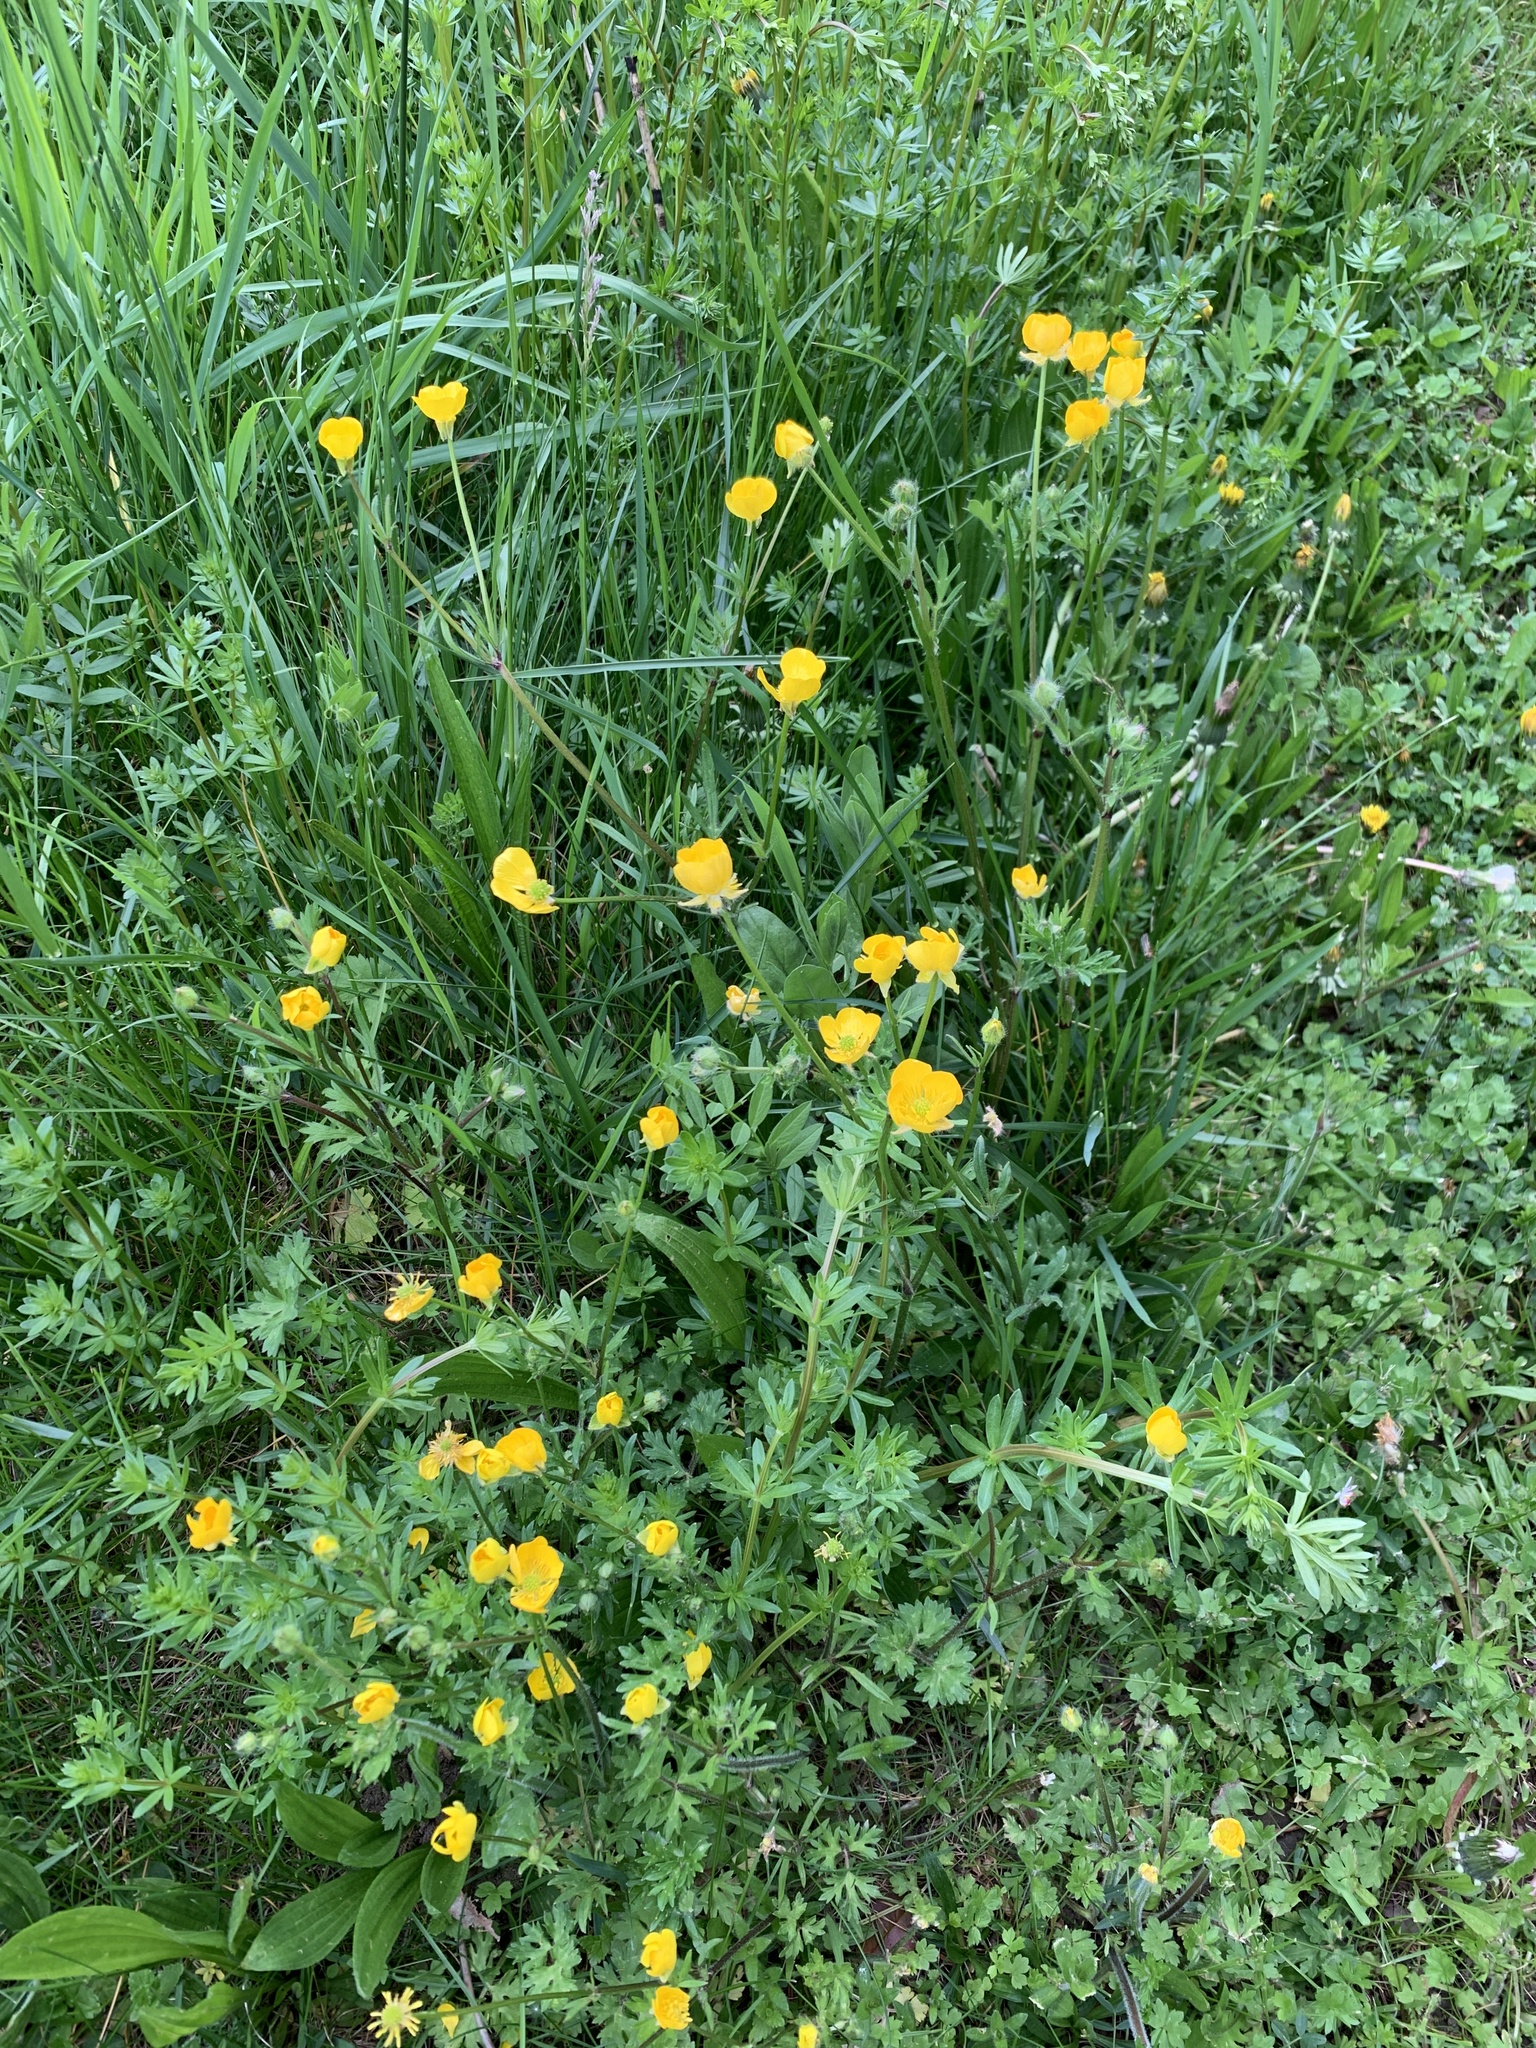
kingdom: Plantae
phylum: Tracheophyta
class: Magnoliopsida
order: Ranunculales
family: Ranunculaceae
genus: Ranunculus
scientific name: Ranunculus bulbosus
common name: Bulbous buttercup
